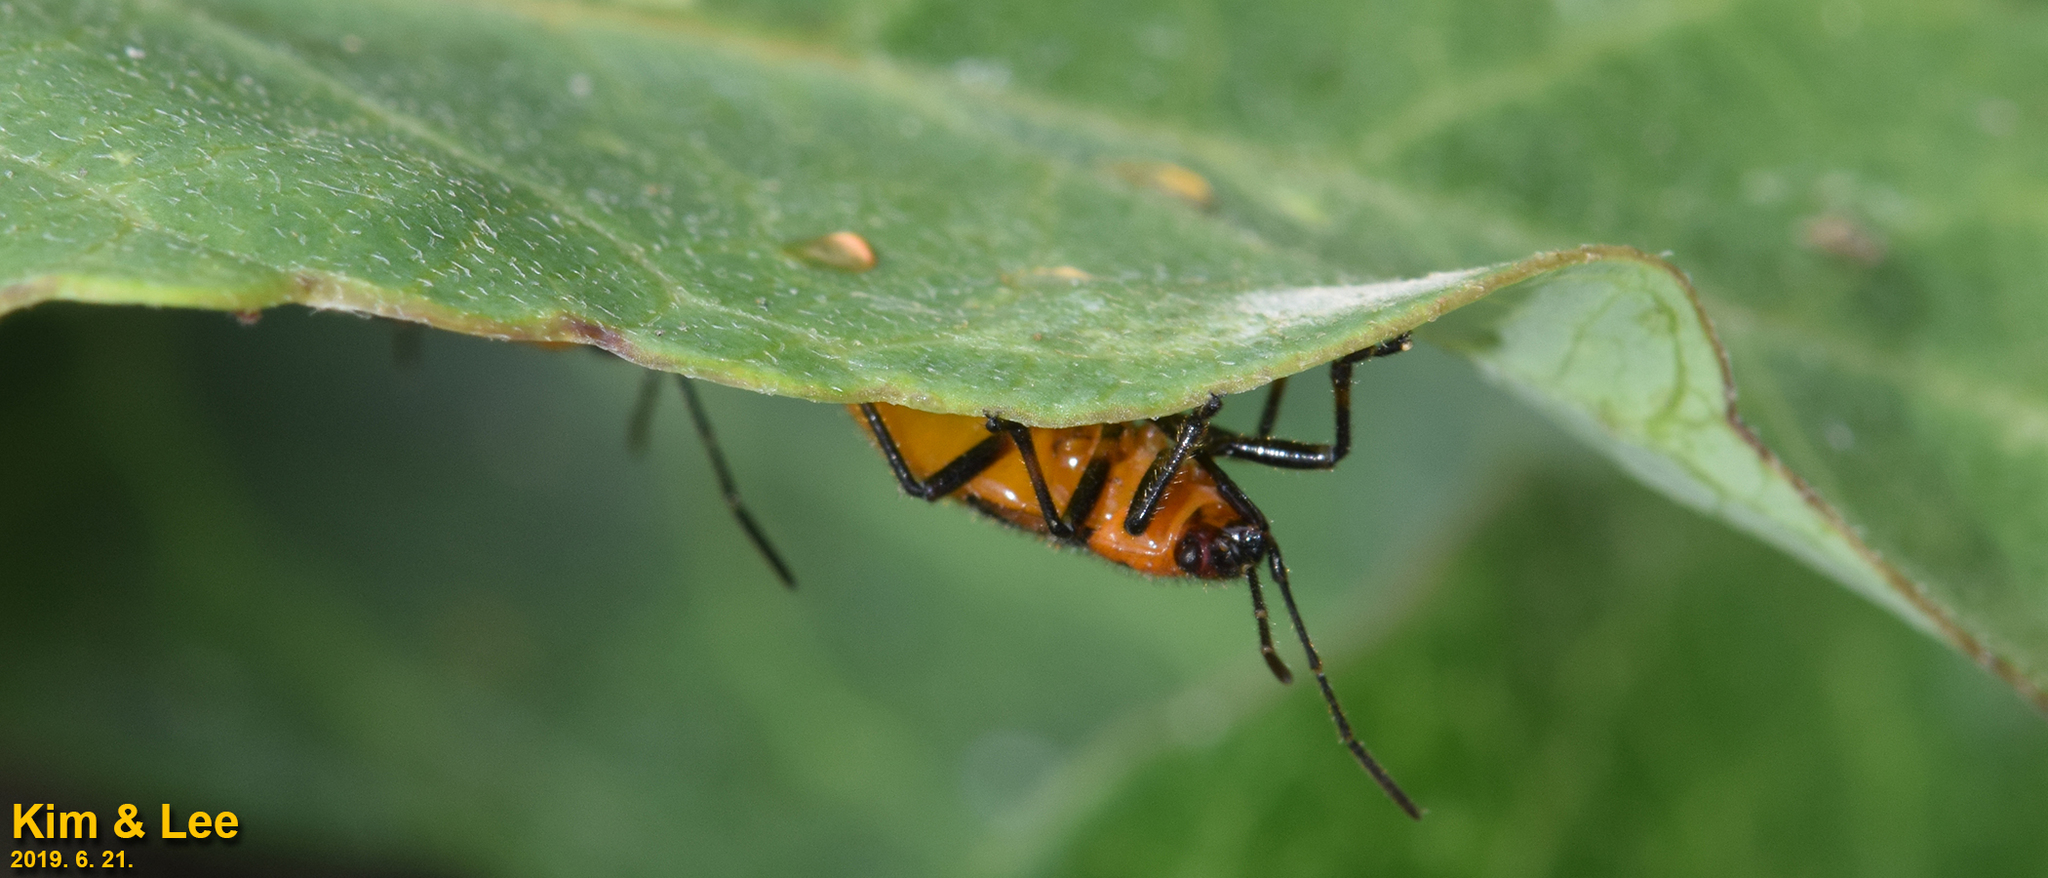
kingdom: Animalia
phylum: Arthropoda
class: Insecta
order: Hemiptera
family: Lygaeidae
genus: Tropidothorax
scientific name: Tropidothorax cruciger
